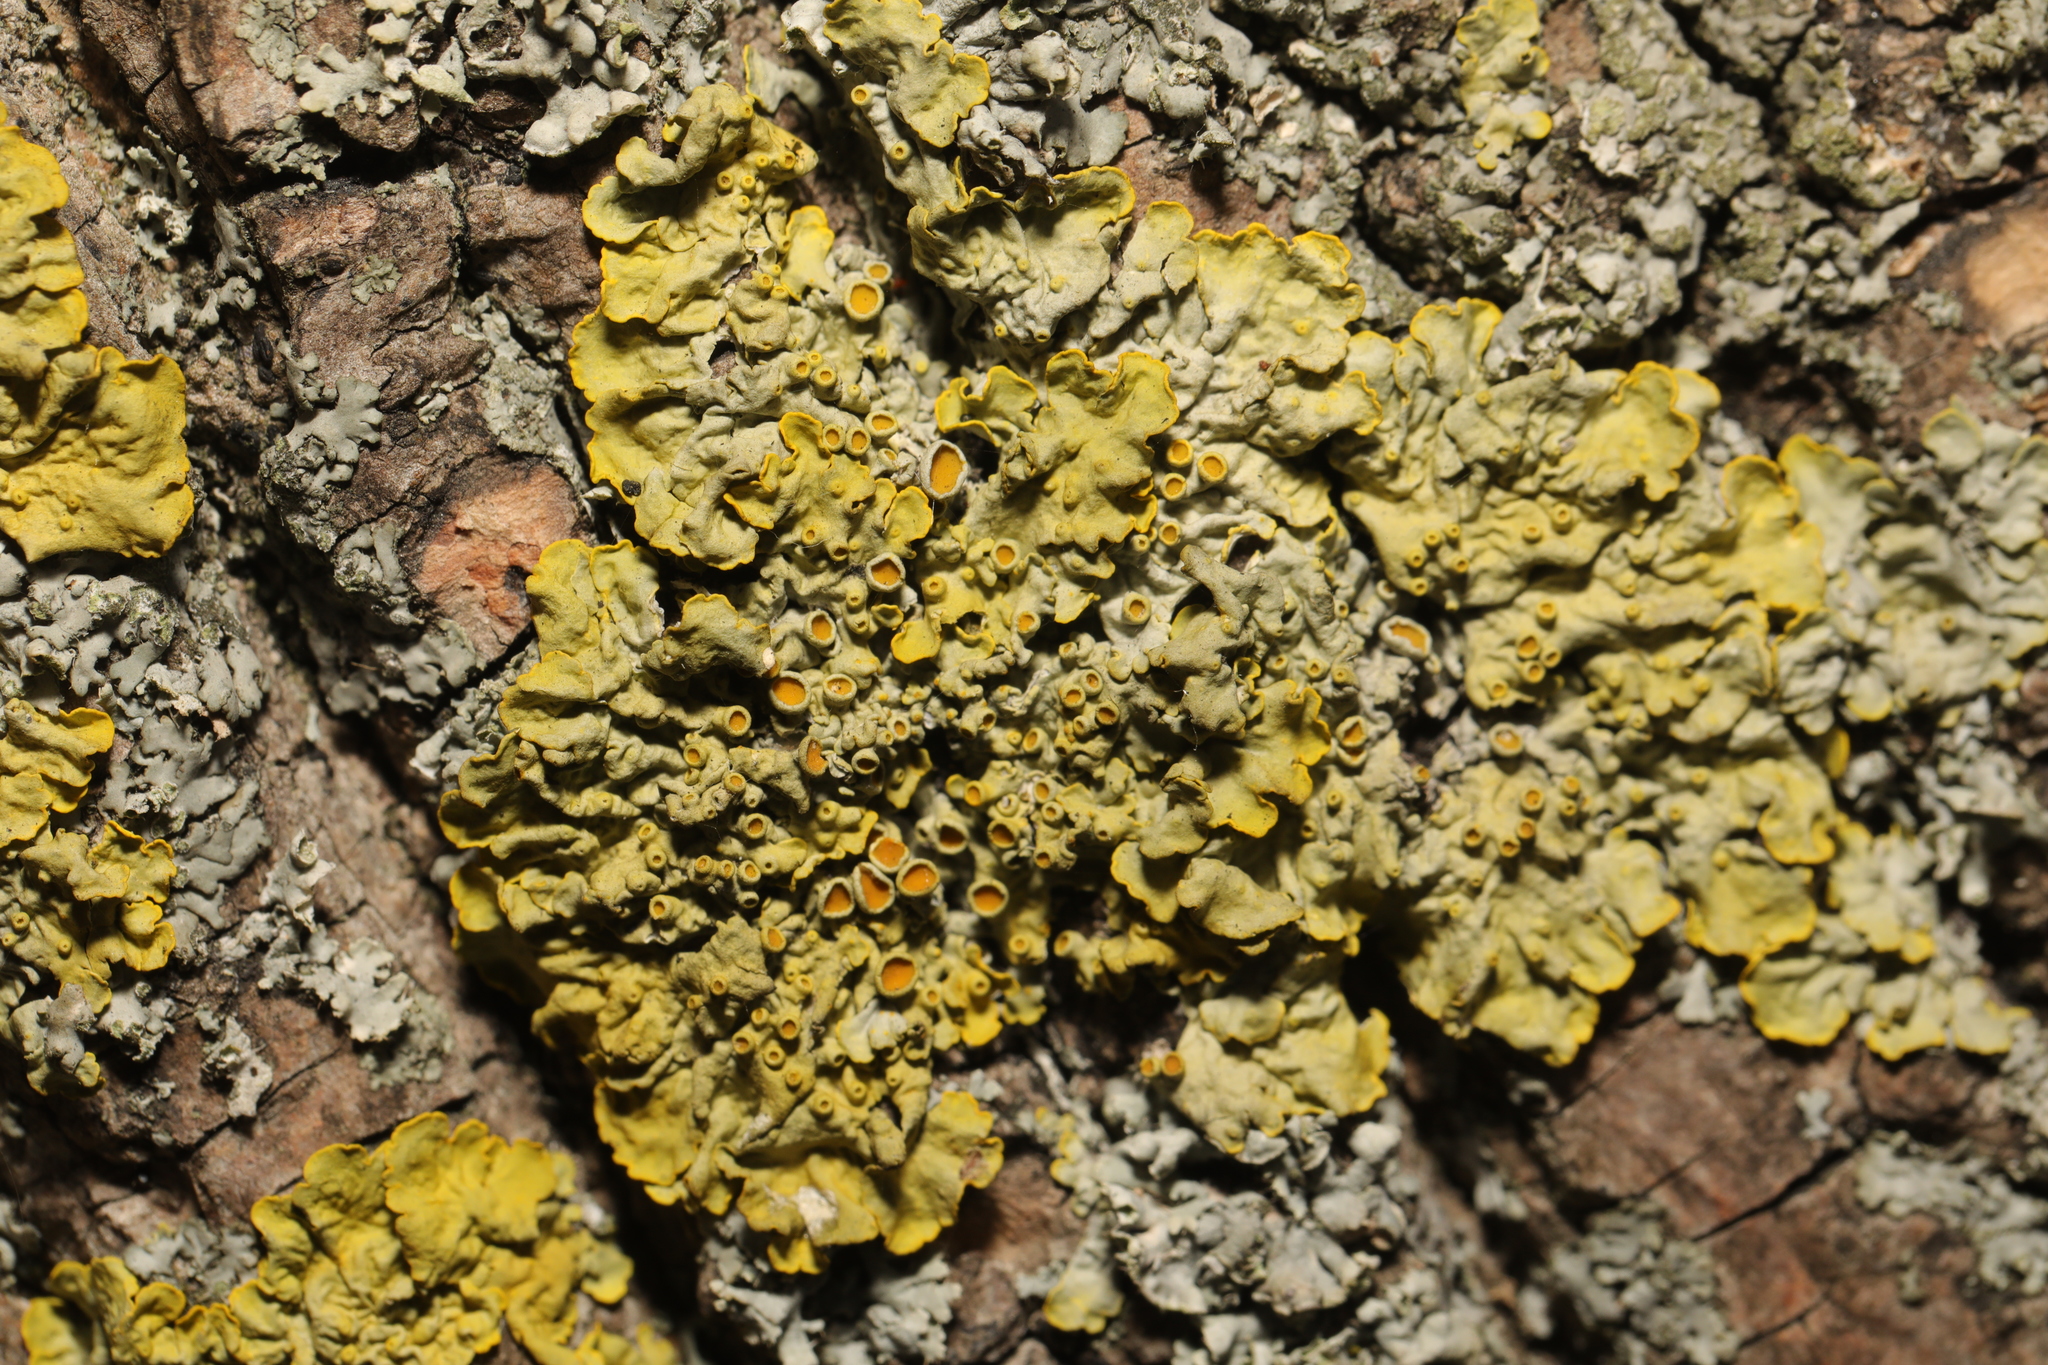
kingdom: Fungi
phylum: Ascomycota
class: Lecanoromycetes
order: Teloschistales
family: Teloschistaceae
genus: Xanthoria
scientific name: Xanthoria parietina
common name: Common orange lichen
